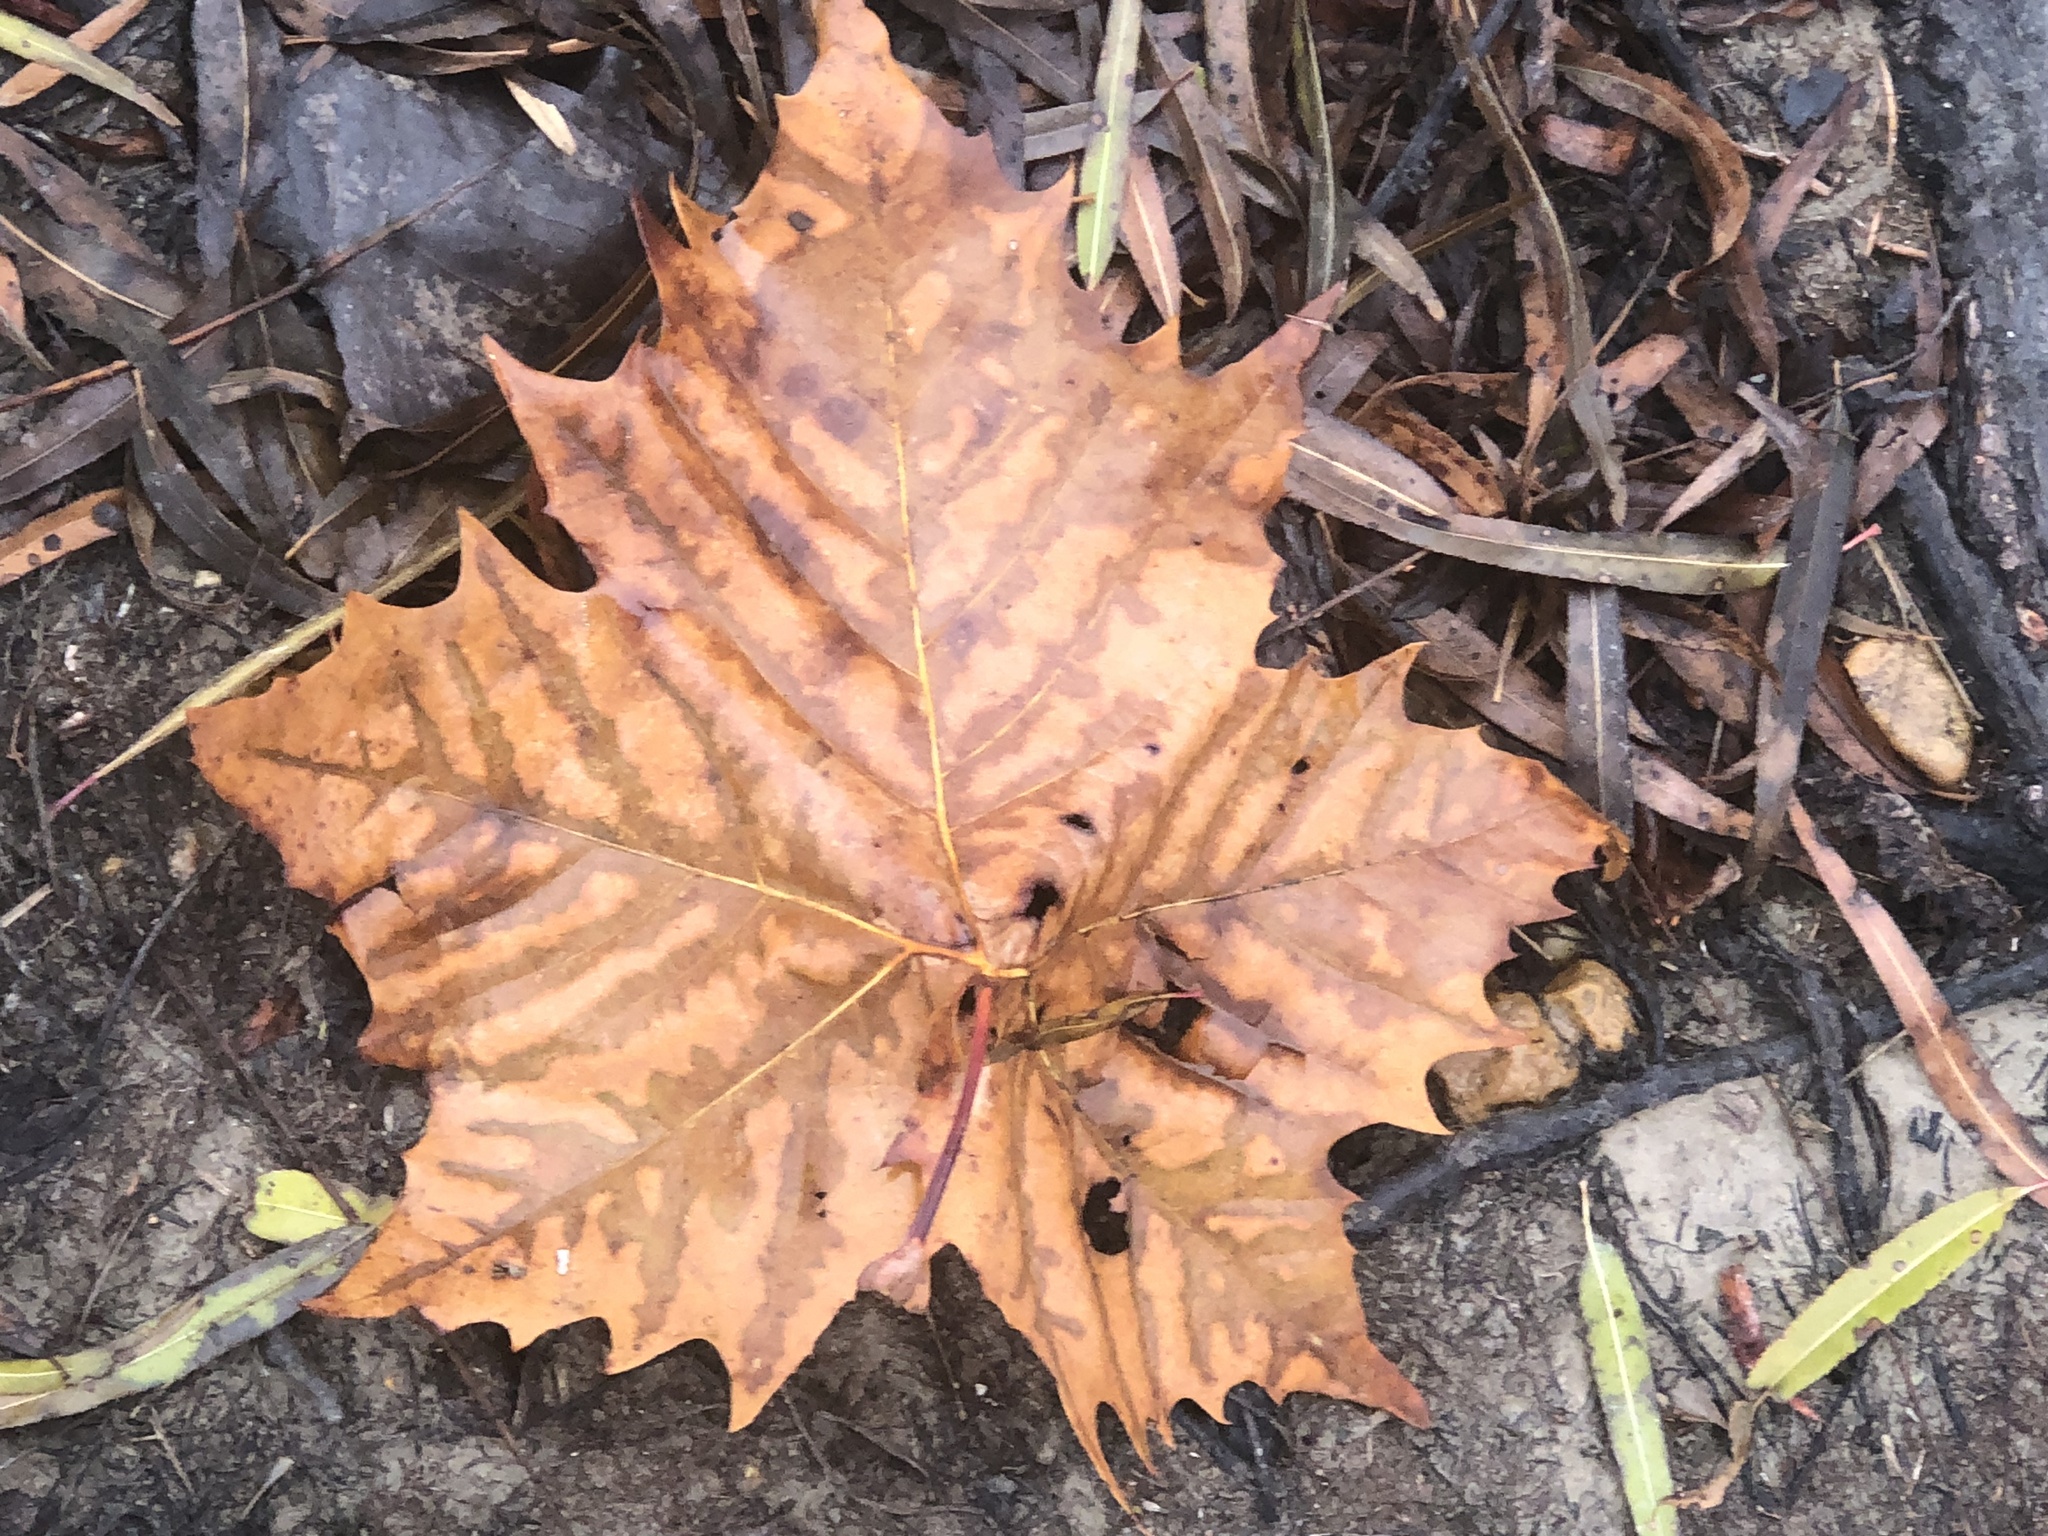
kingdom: Plantae
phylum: Tracheophyta
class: Magnoliopsida
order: Proteales
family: Platanaceae
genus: Platanus
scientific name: Platanus occidentalis
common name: American sycamore
